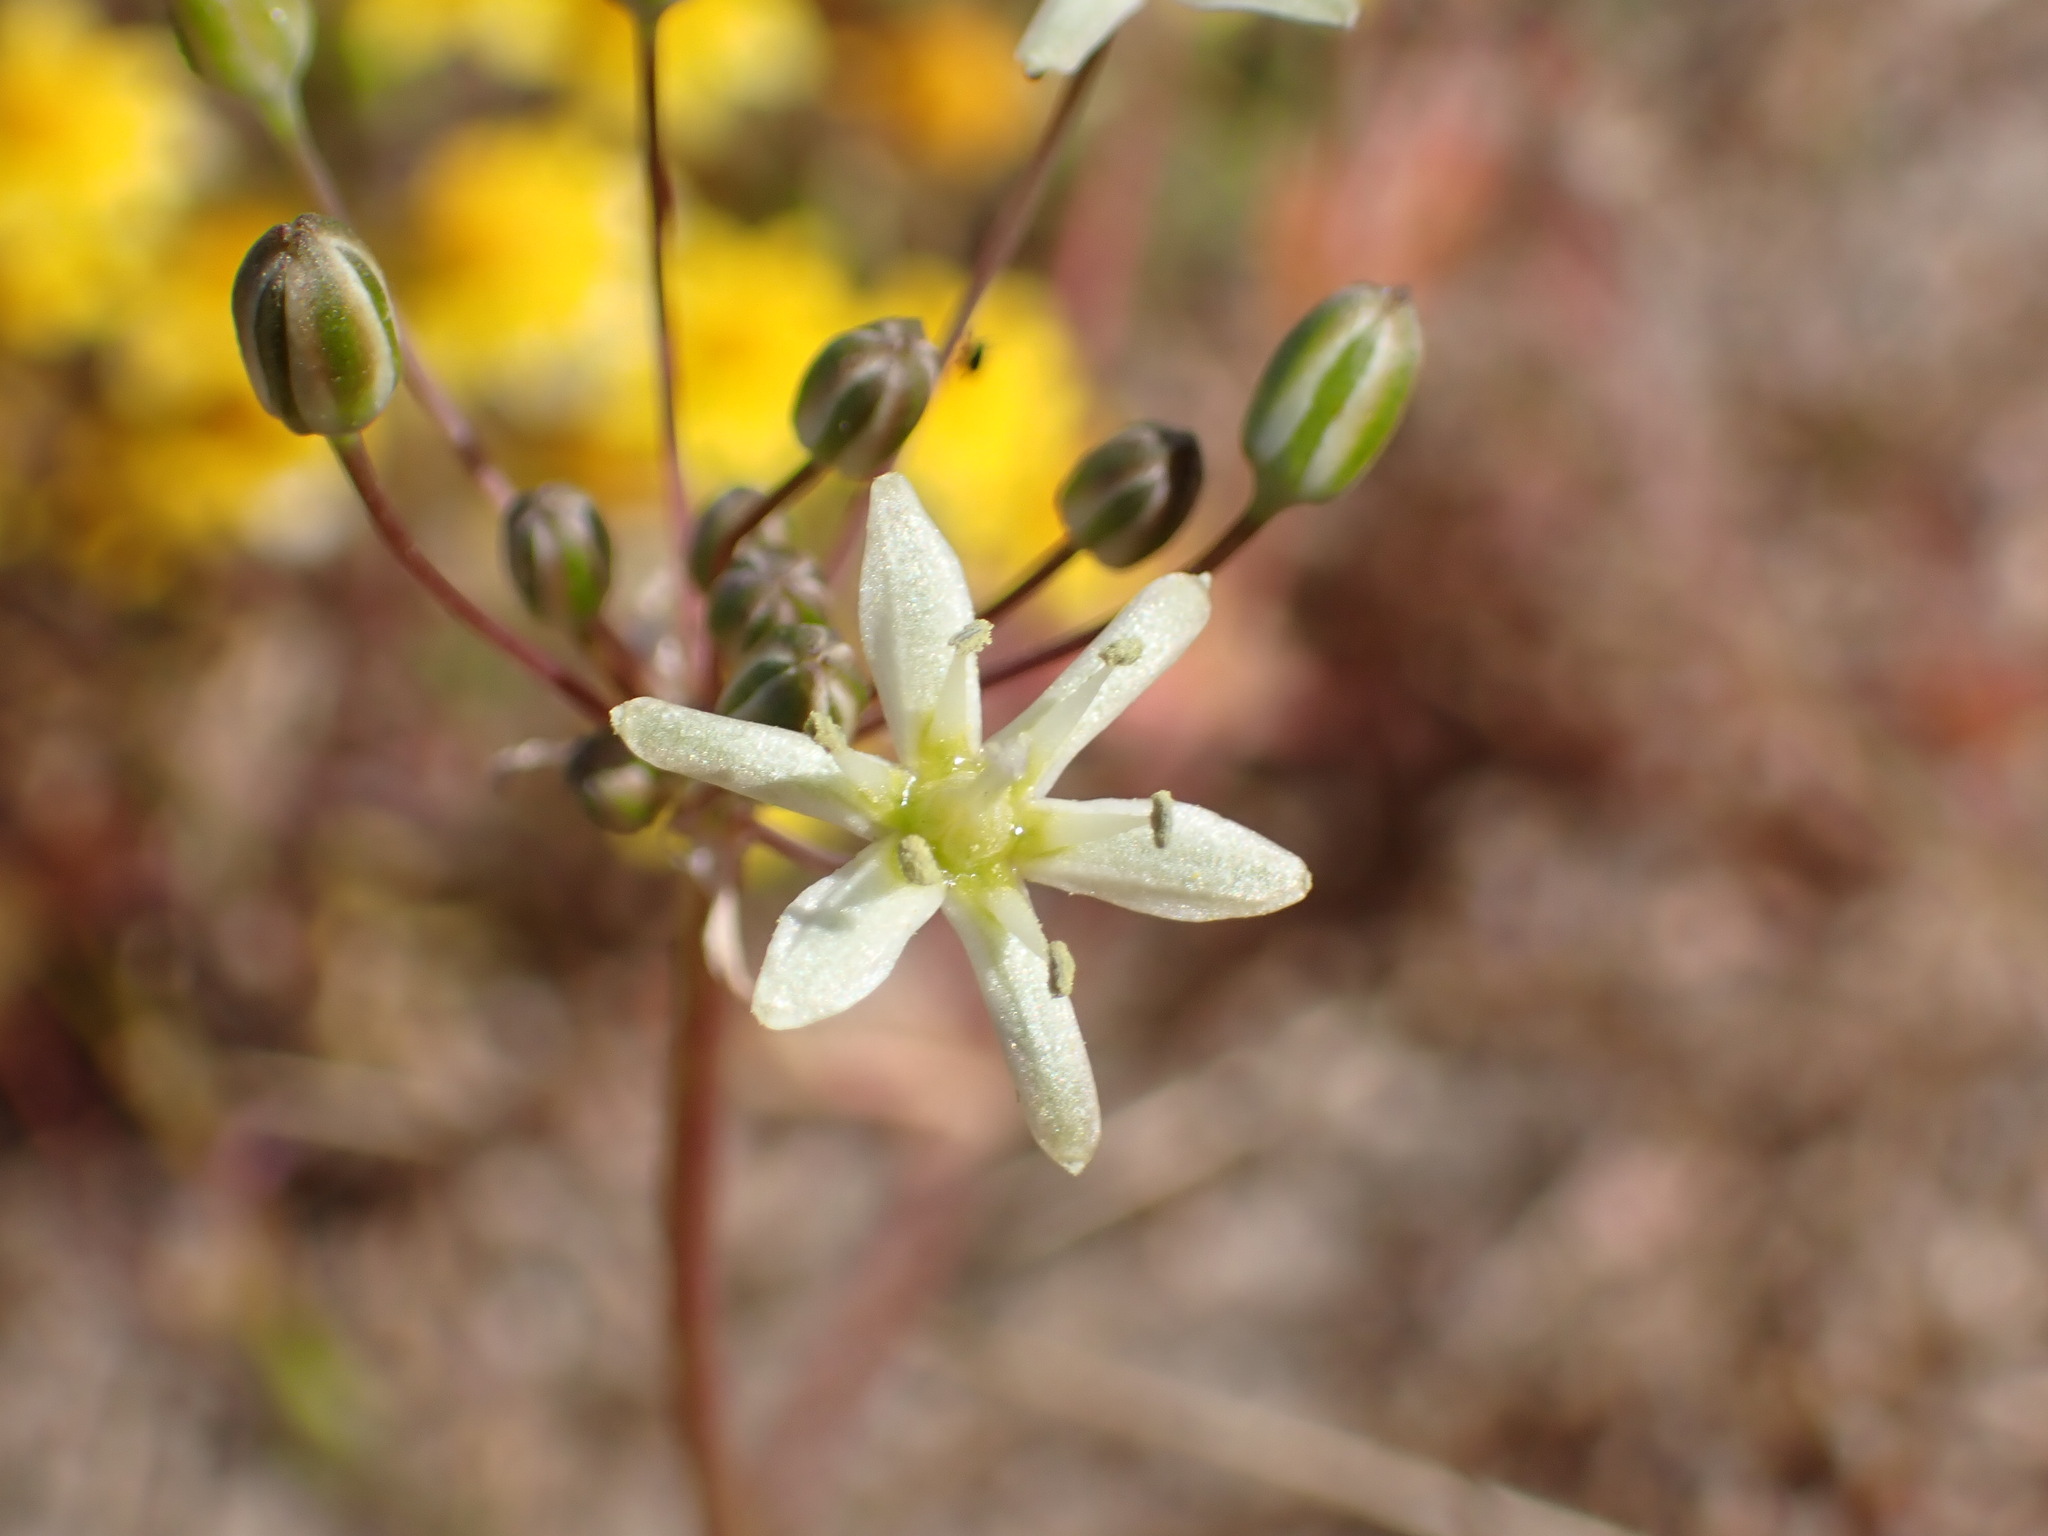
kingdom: Plantae
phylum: Tracheophyta
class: Liliopsida
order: Asparagales
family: Asparagaceae
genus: Muilla
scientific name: Muilla maritima
